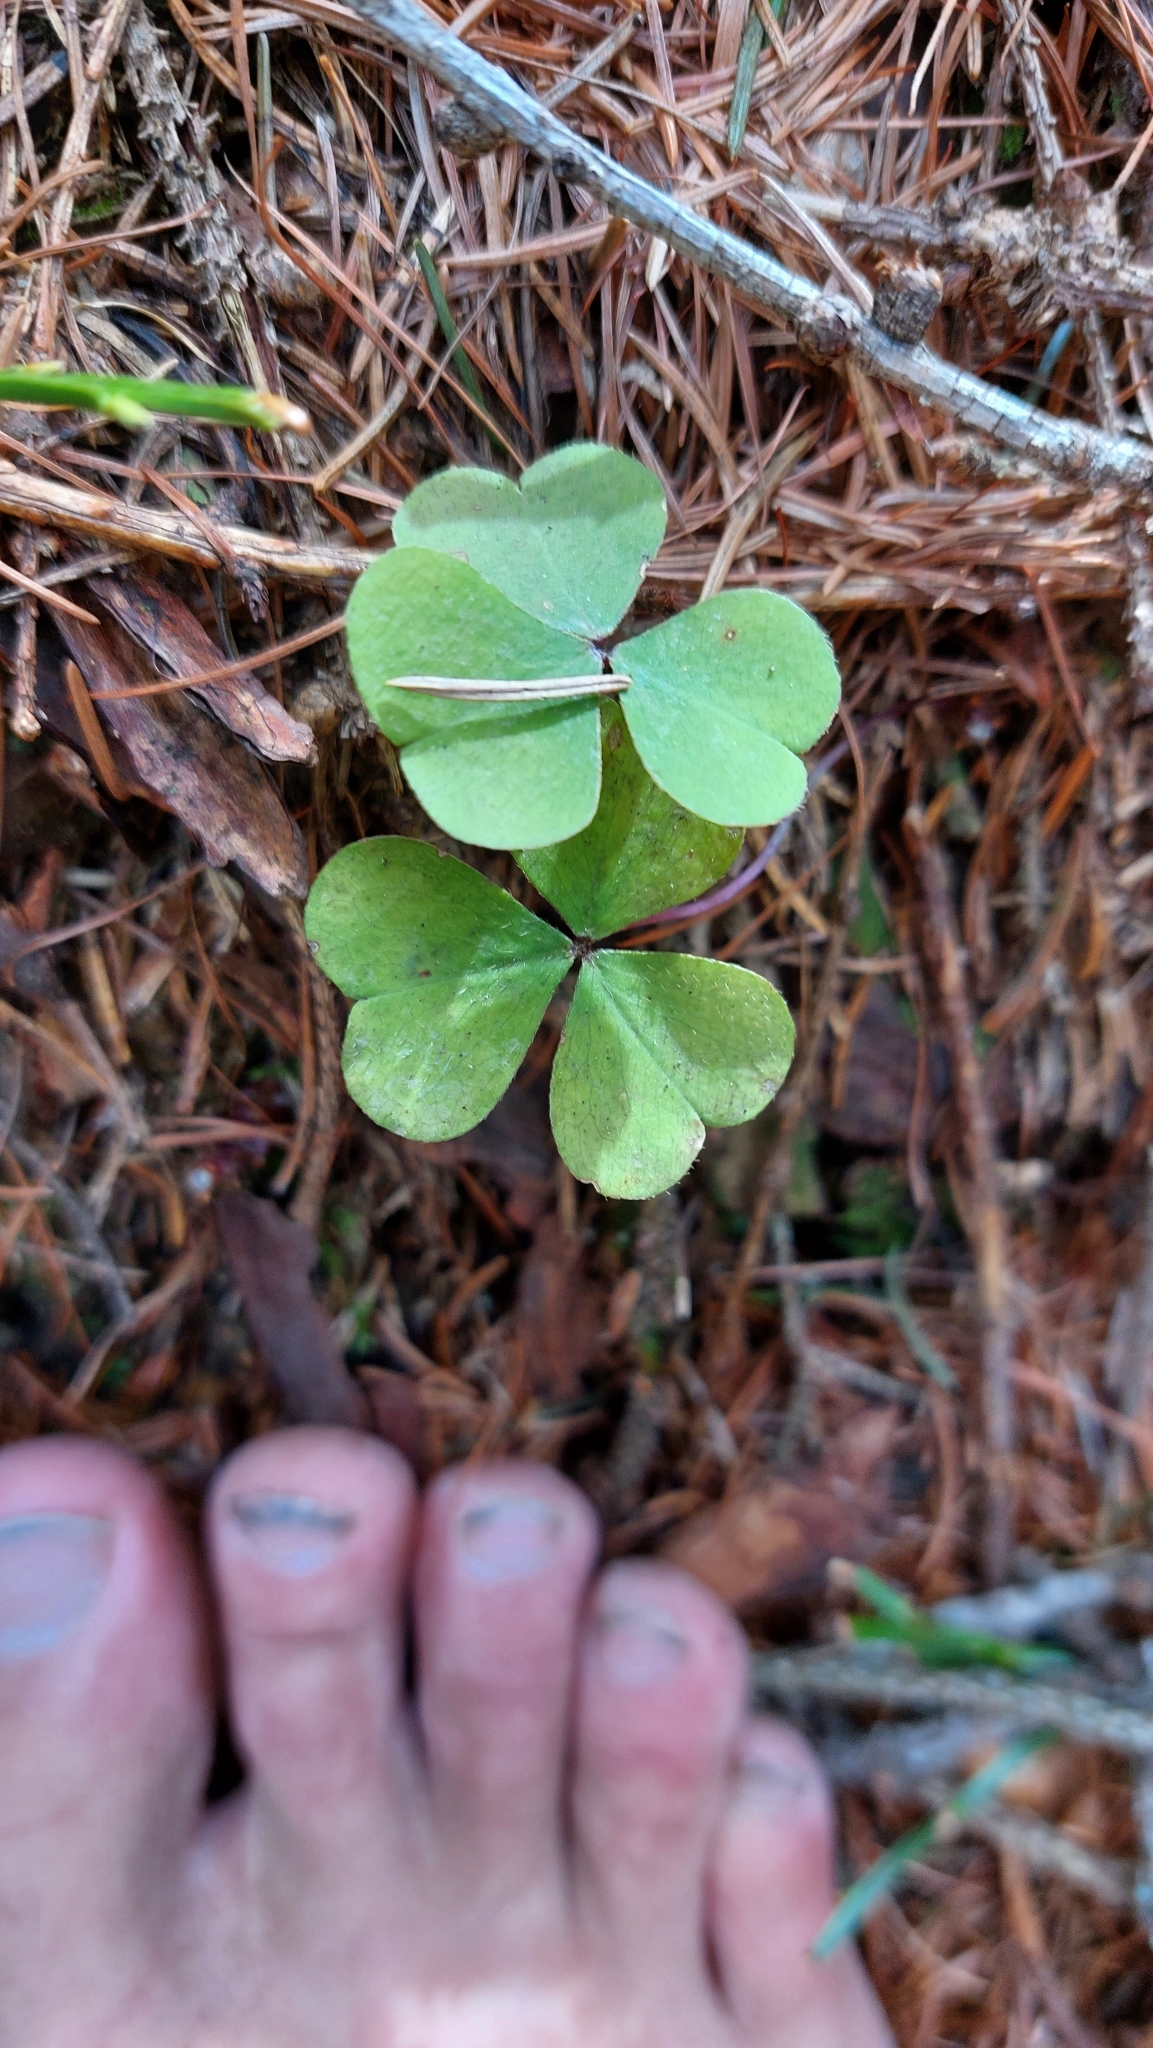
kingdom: Plantae
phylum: Tracheophyta
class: Magnoliopsida
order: Oxalidales
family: Oxalidaceae
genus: Oxalis
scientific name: Oxalis acetosella
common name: Wood-sorrel
